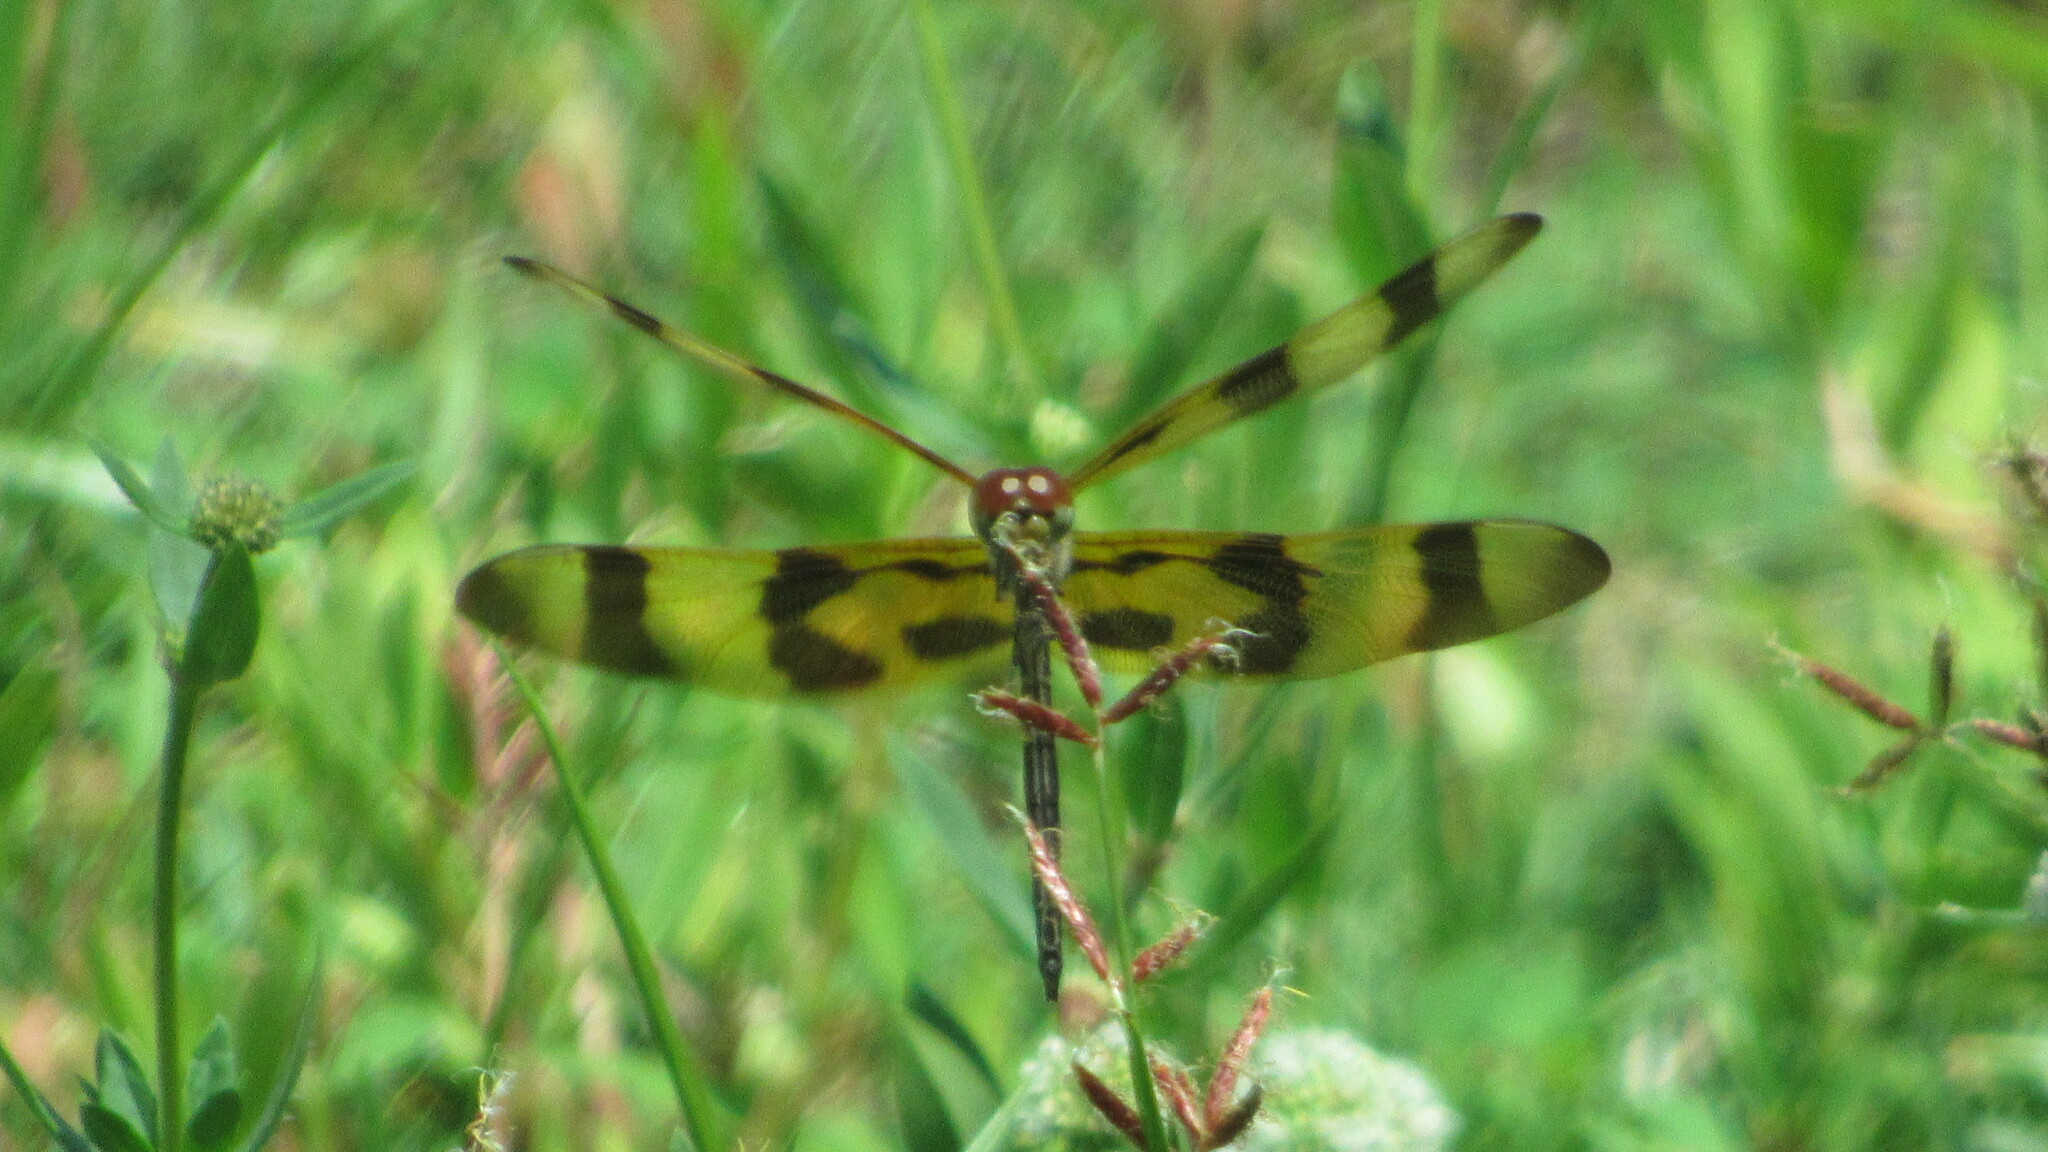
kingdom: Animalia
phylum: Arthropoda
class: Insecta
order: Odonata
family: Libellulidae
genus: Celithemis
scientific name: Celithemis eponina
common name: Halloween pennant
